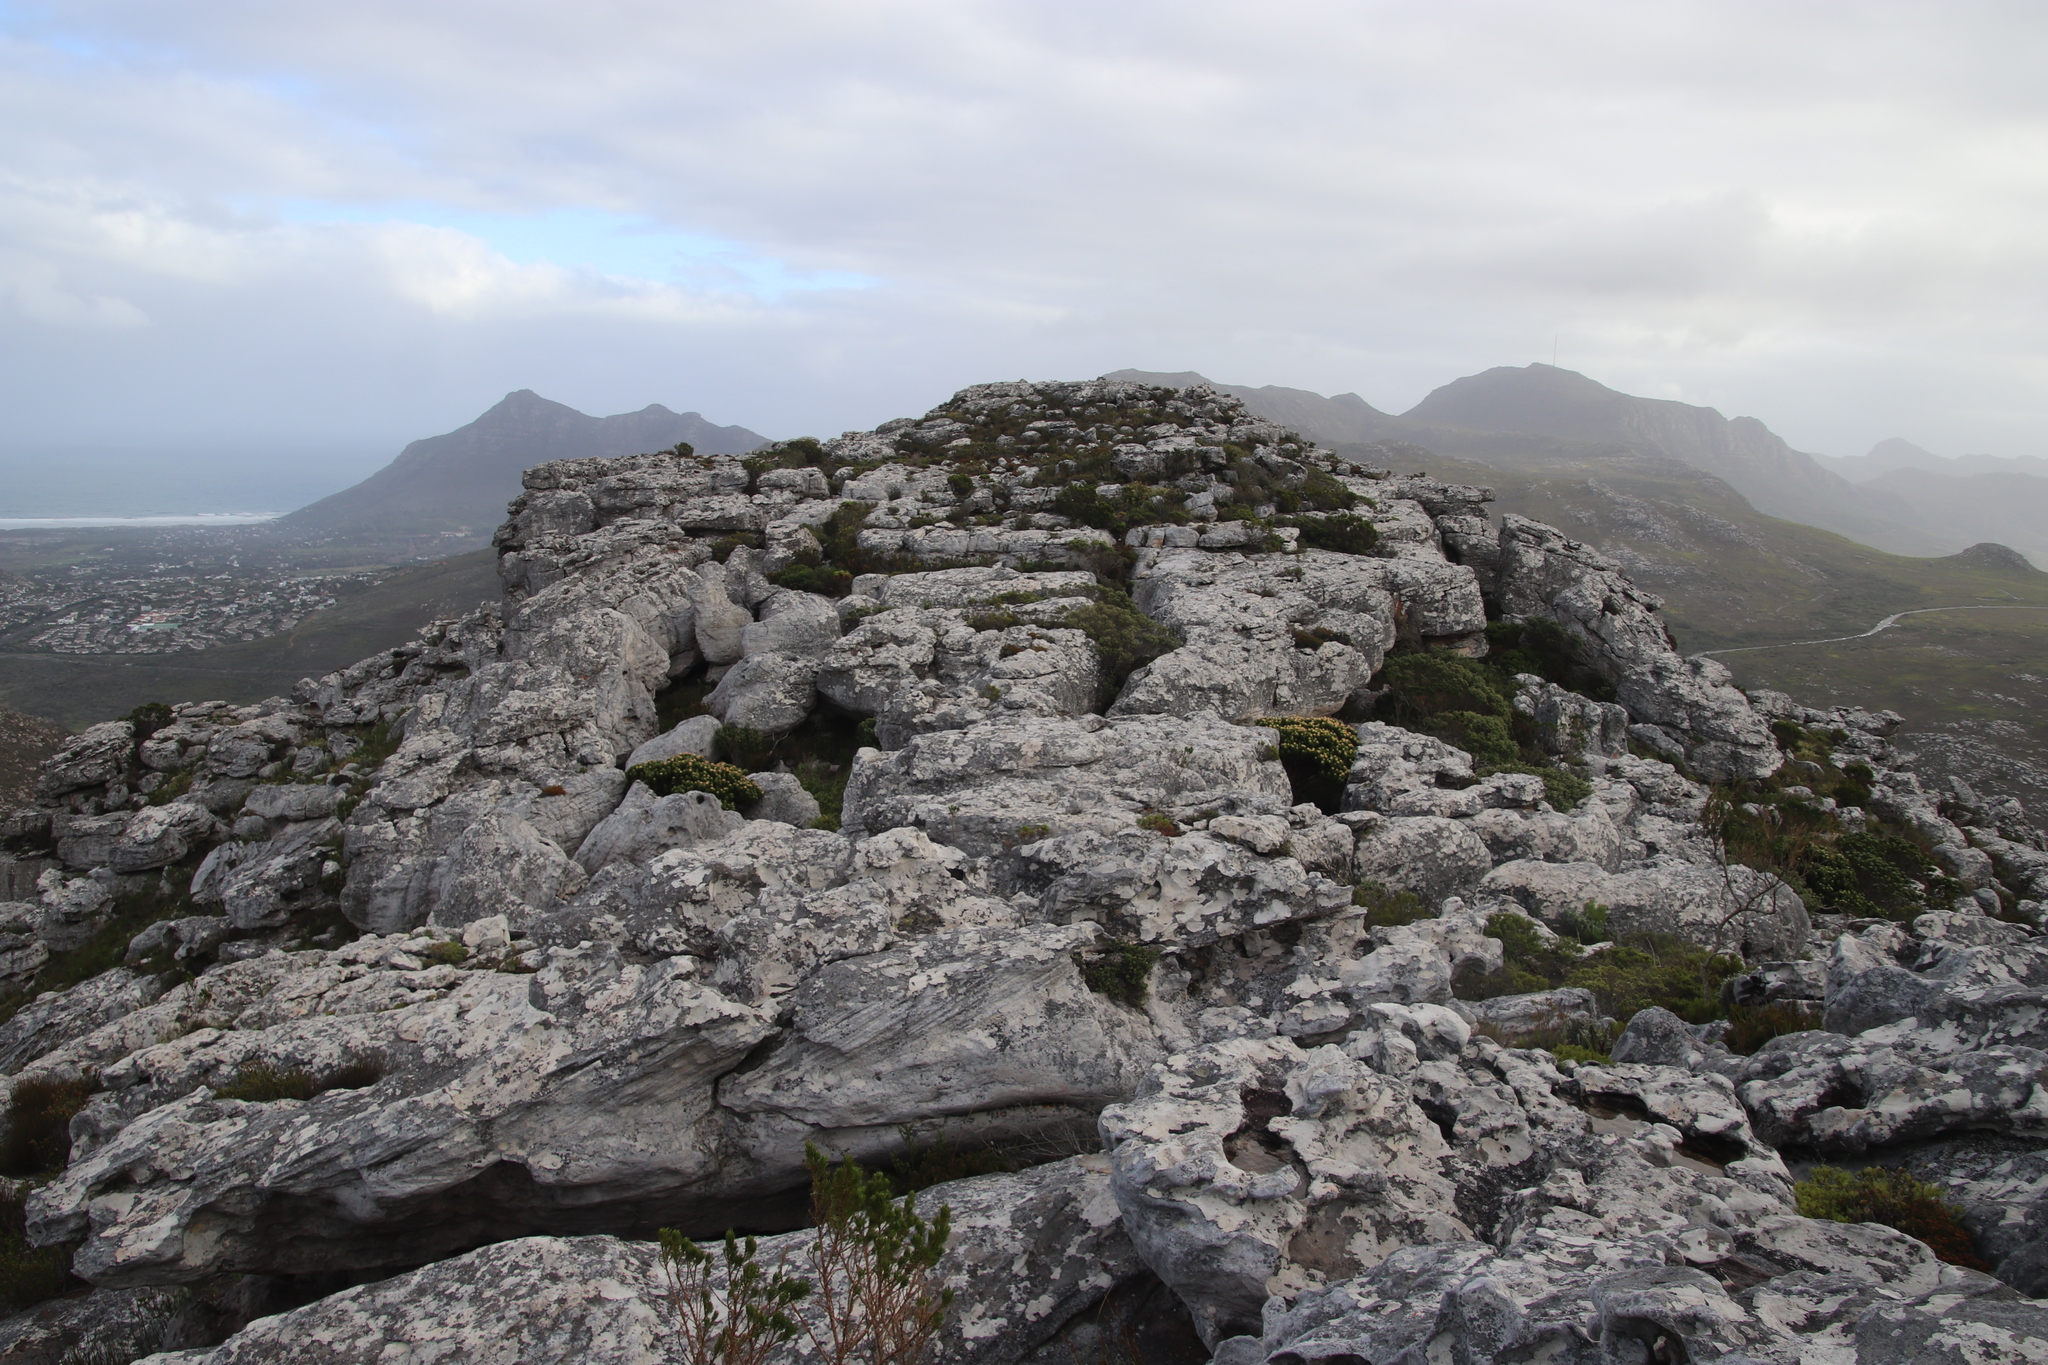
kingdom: Plantae
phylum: Tracheophyta
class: Magnoliopsida
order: Proteales
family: Proteaceae
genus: Mimetes
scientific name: Mimetes fimbriifolius
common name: Fringed bottlebrush
